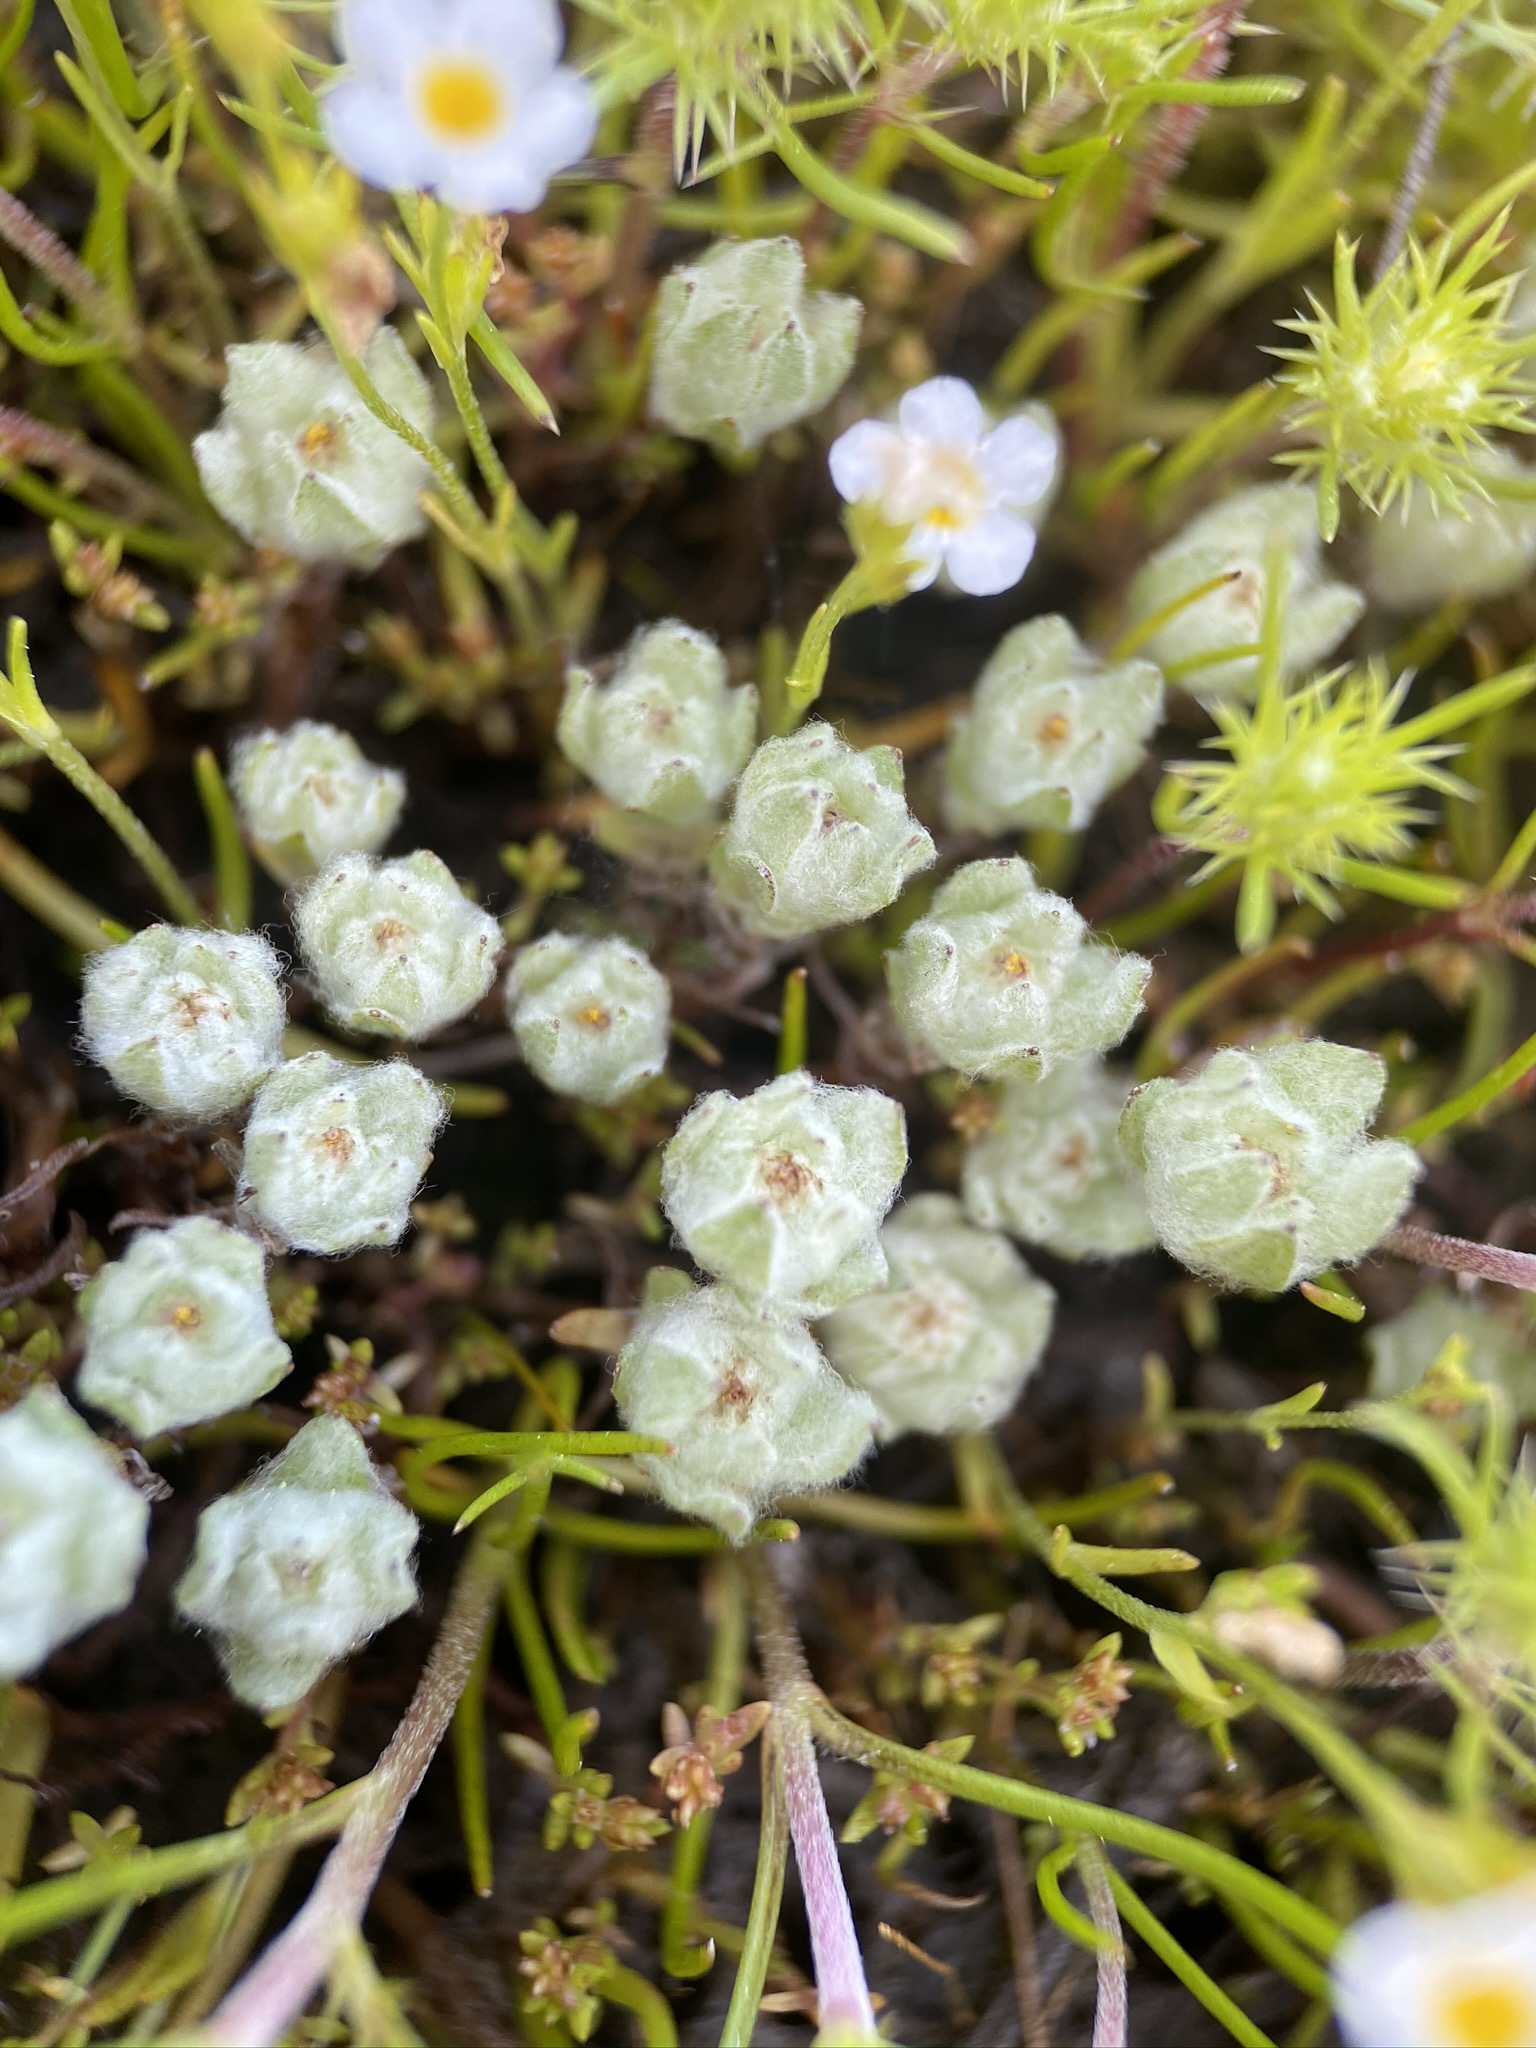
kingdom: Plantae
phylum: Tracheophyta
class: Magnoliopsida
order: Asterales
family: Asteraceae
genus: Psilocarphus
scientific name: Psilocarphus brevissimus
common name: Dwarf woollyheads
